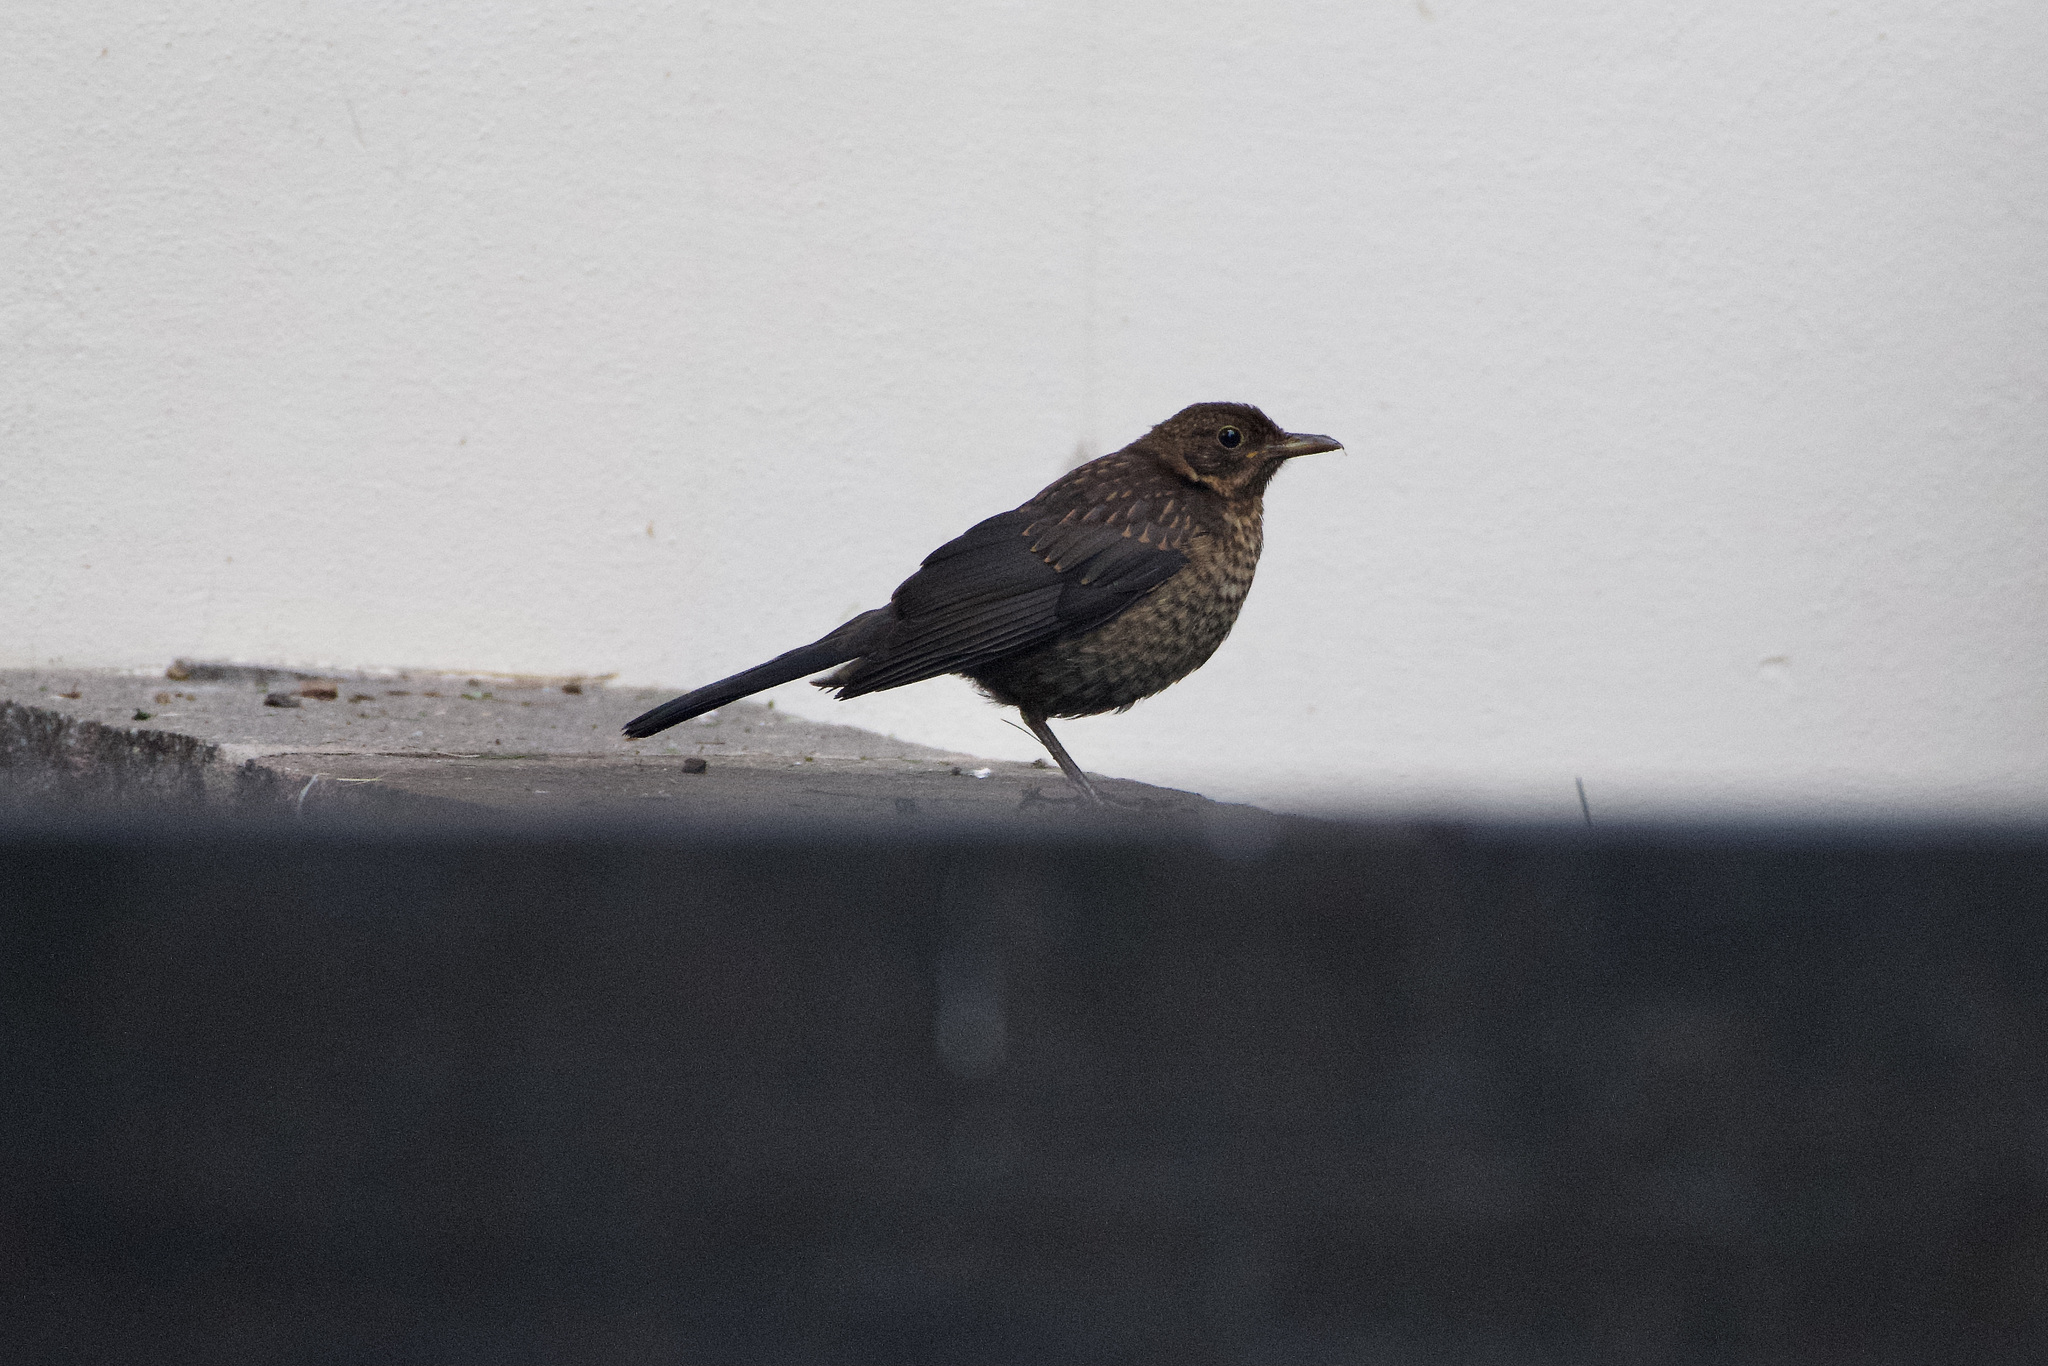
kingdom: Animalia
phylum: Chordata
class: Aves
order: Passeriformes
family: Turdidae
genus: Turdus
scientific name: Turdus merula
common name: Common blackbird
